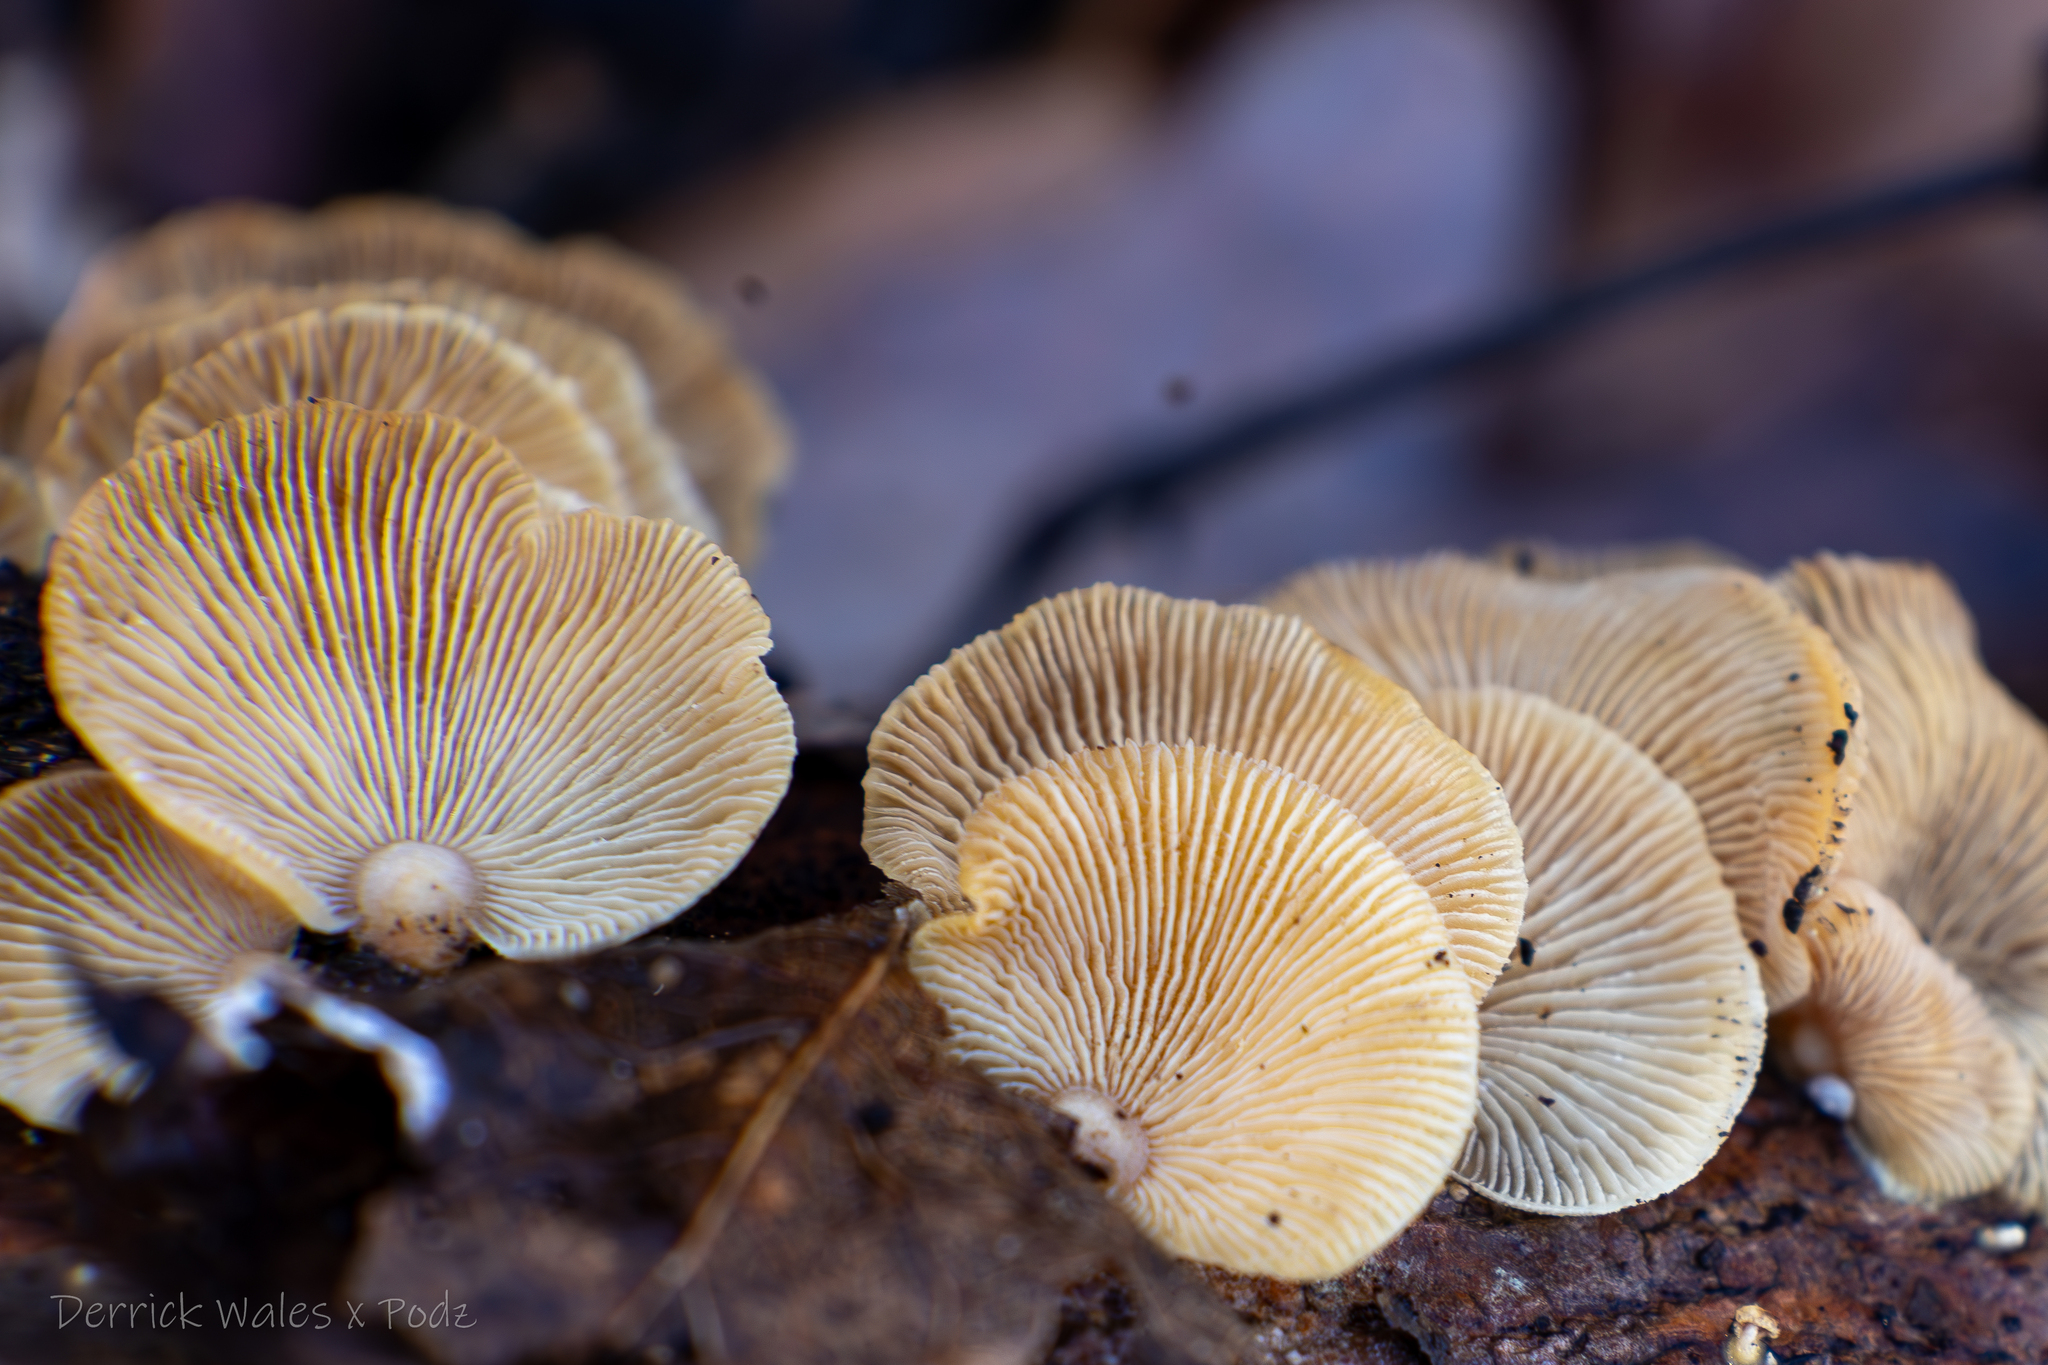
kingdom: Fungi
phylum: Basidiomycota
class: Agaricomycetes
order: Agaricales
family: Mycenaceae
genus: Panellus
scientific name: Panellus stipticus
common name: Bitter oysterling
